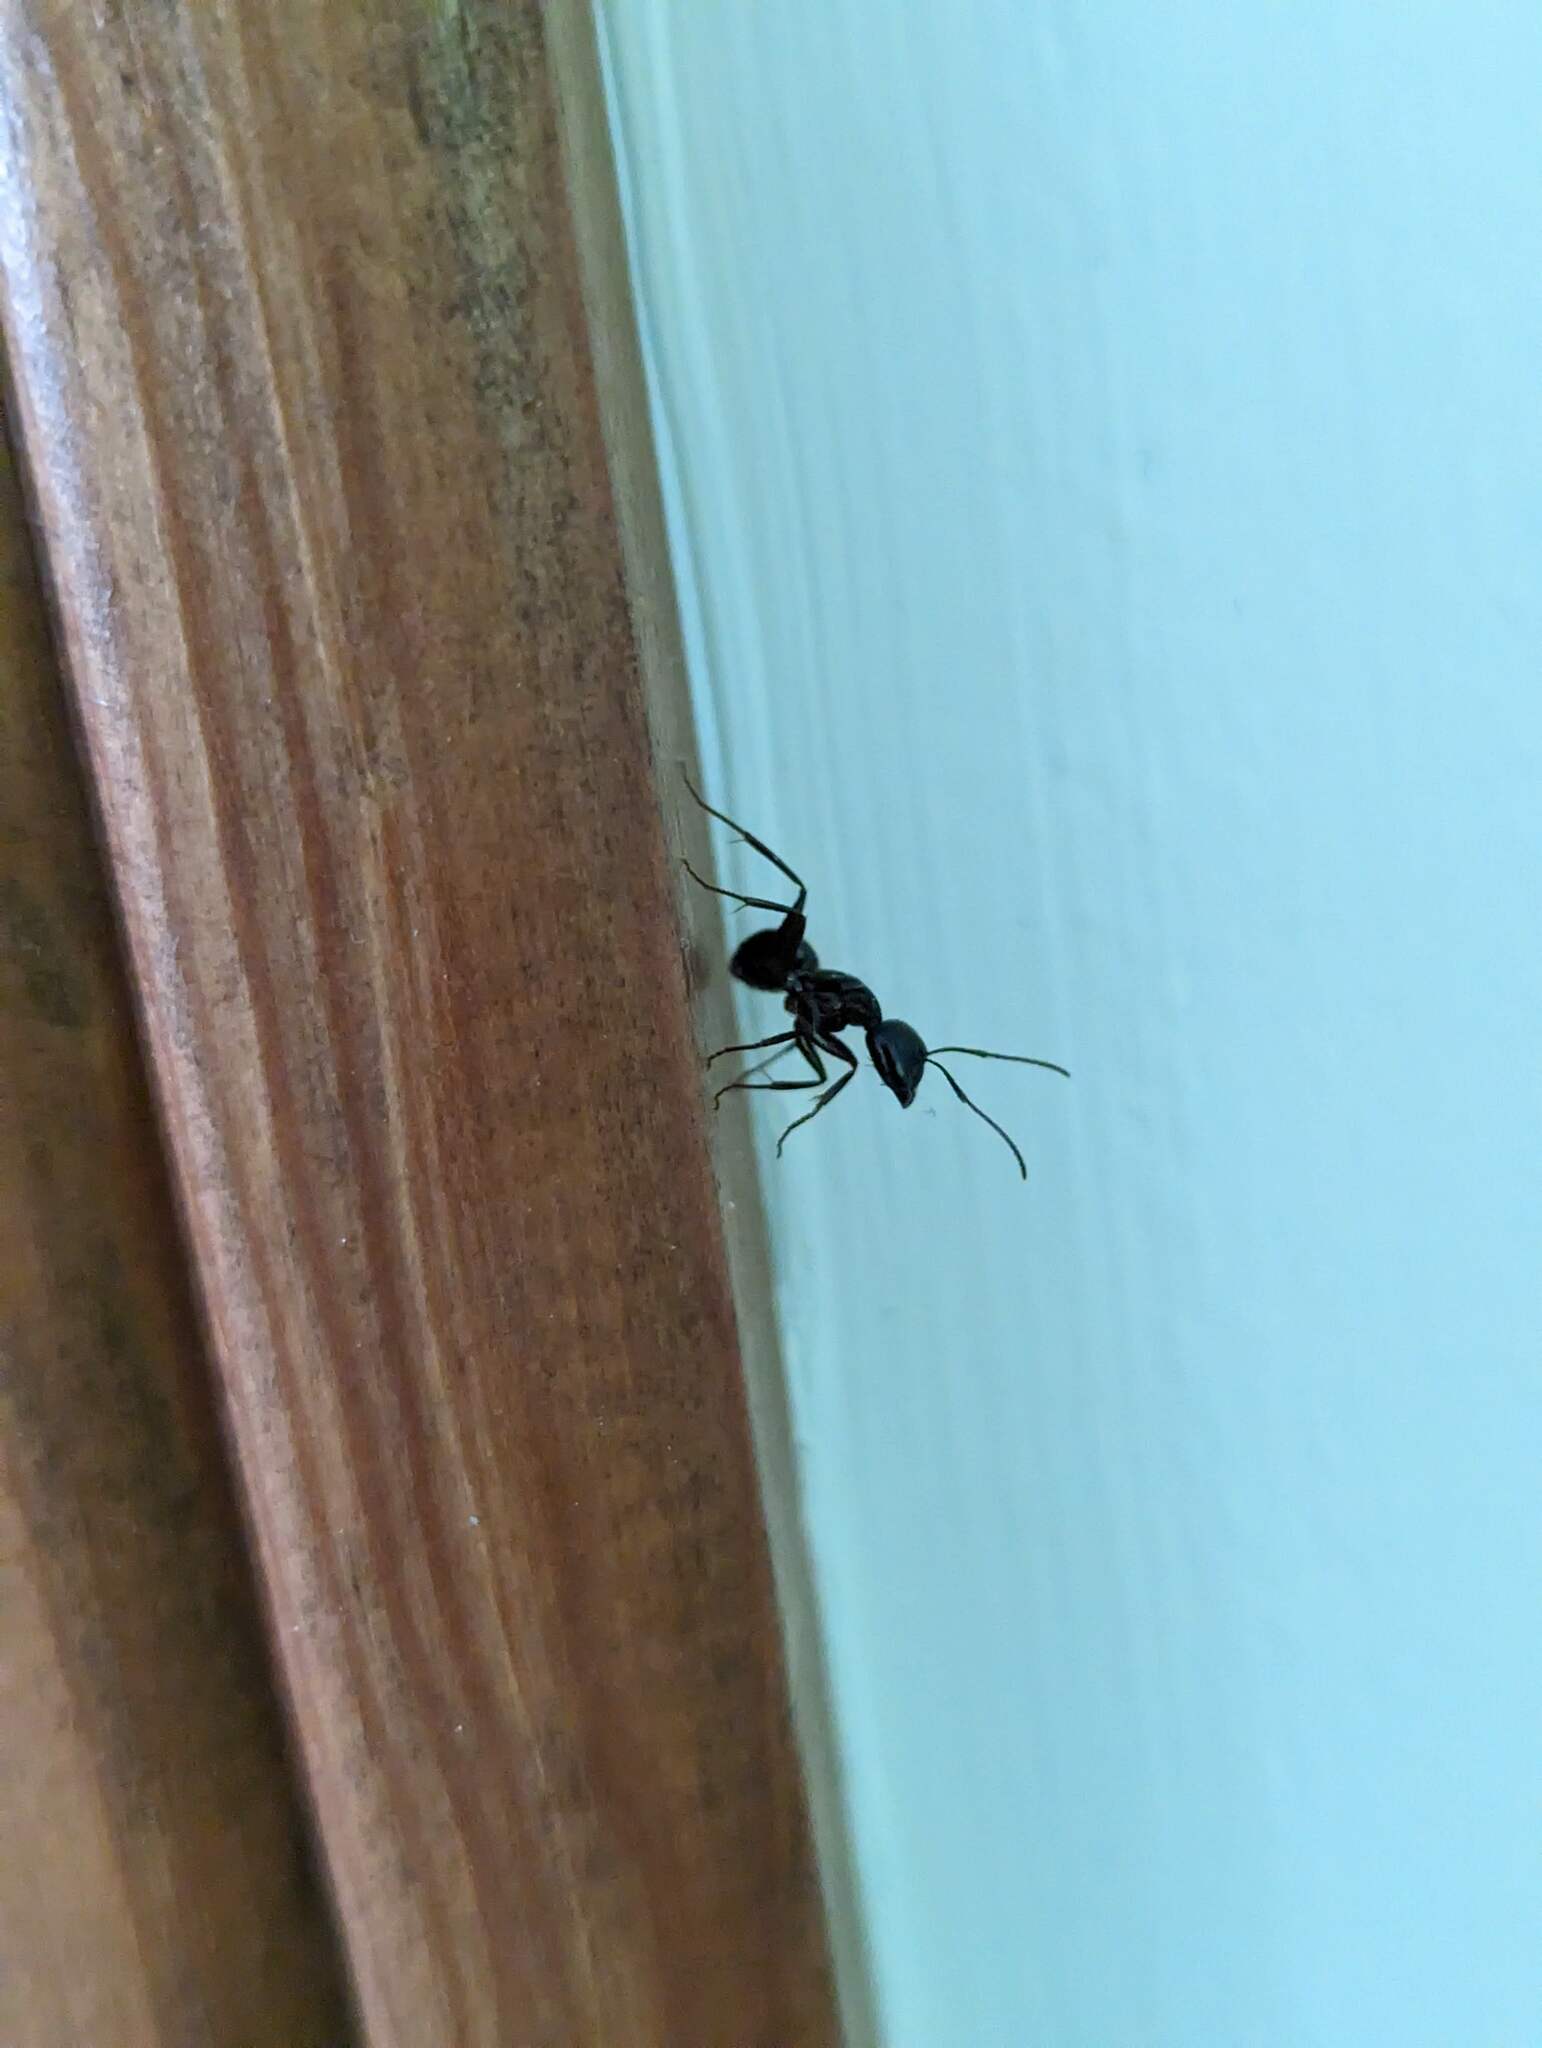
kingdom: Animalia
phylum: Arthropoda
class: Insecta
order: Hymenoptera
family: Formicidae
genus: Camponotus
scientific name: Camponotus pennsylvanicus
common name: Black carpenter ant
